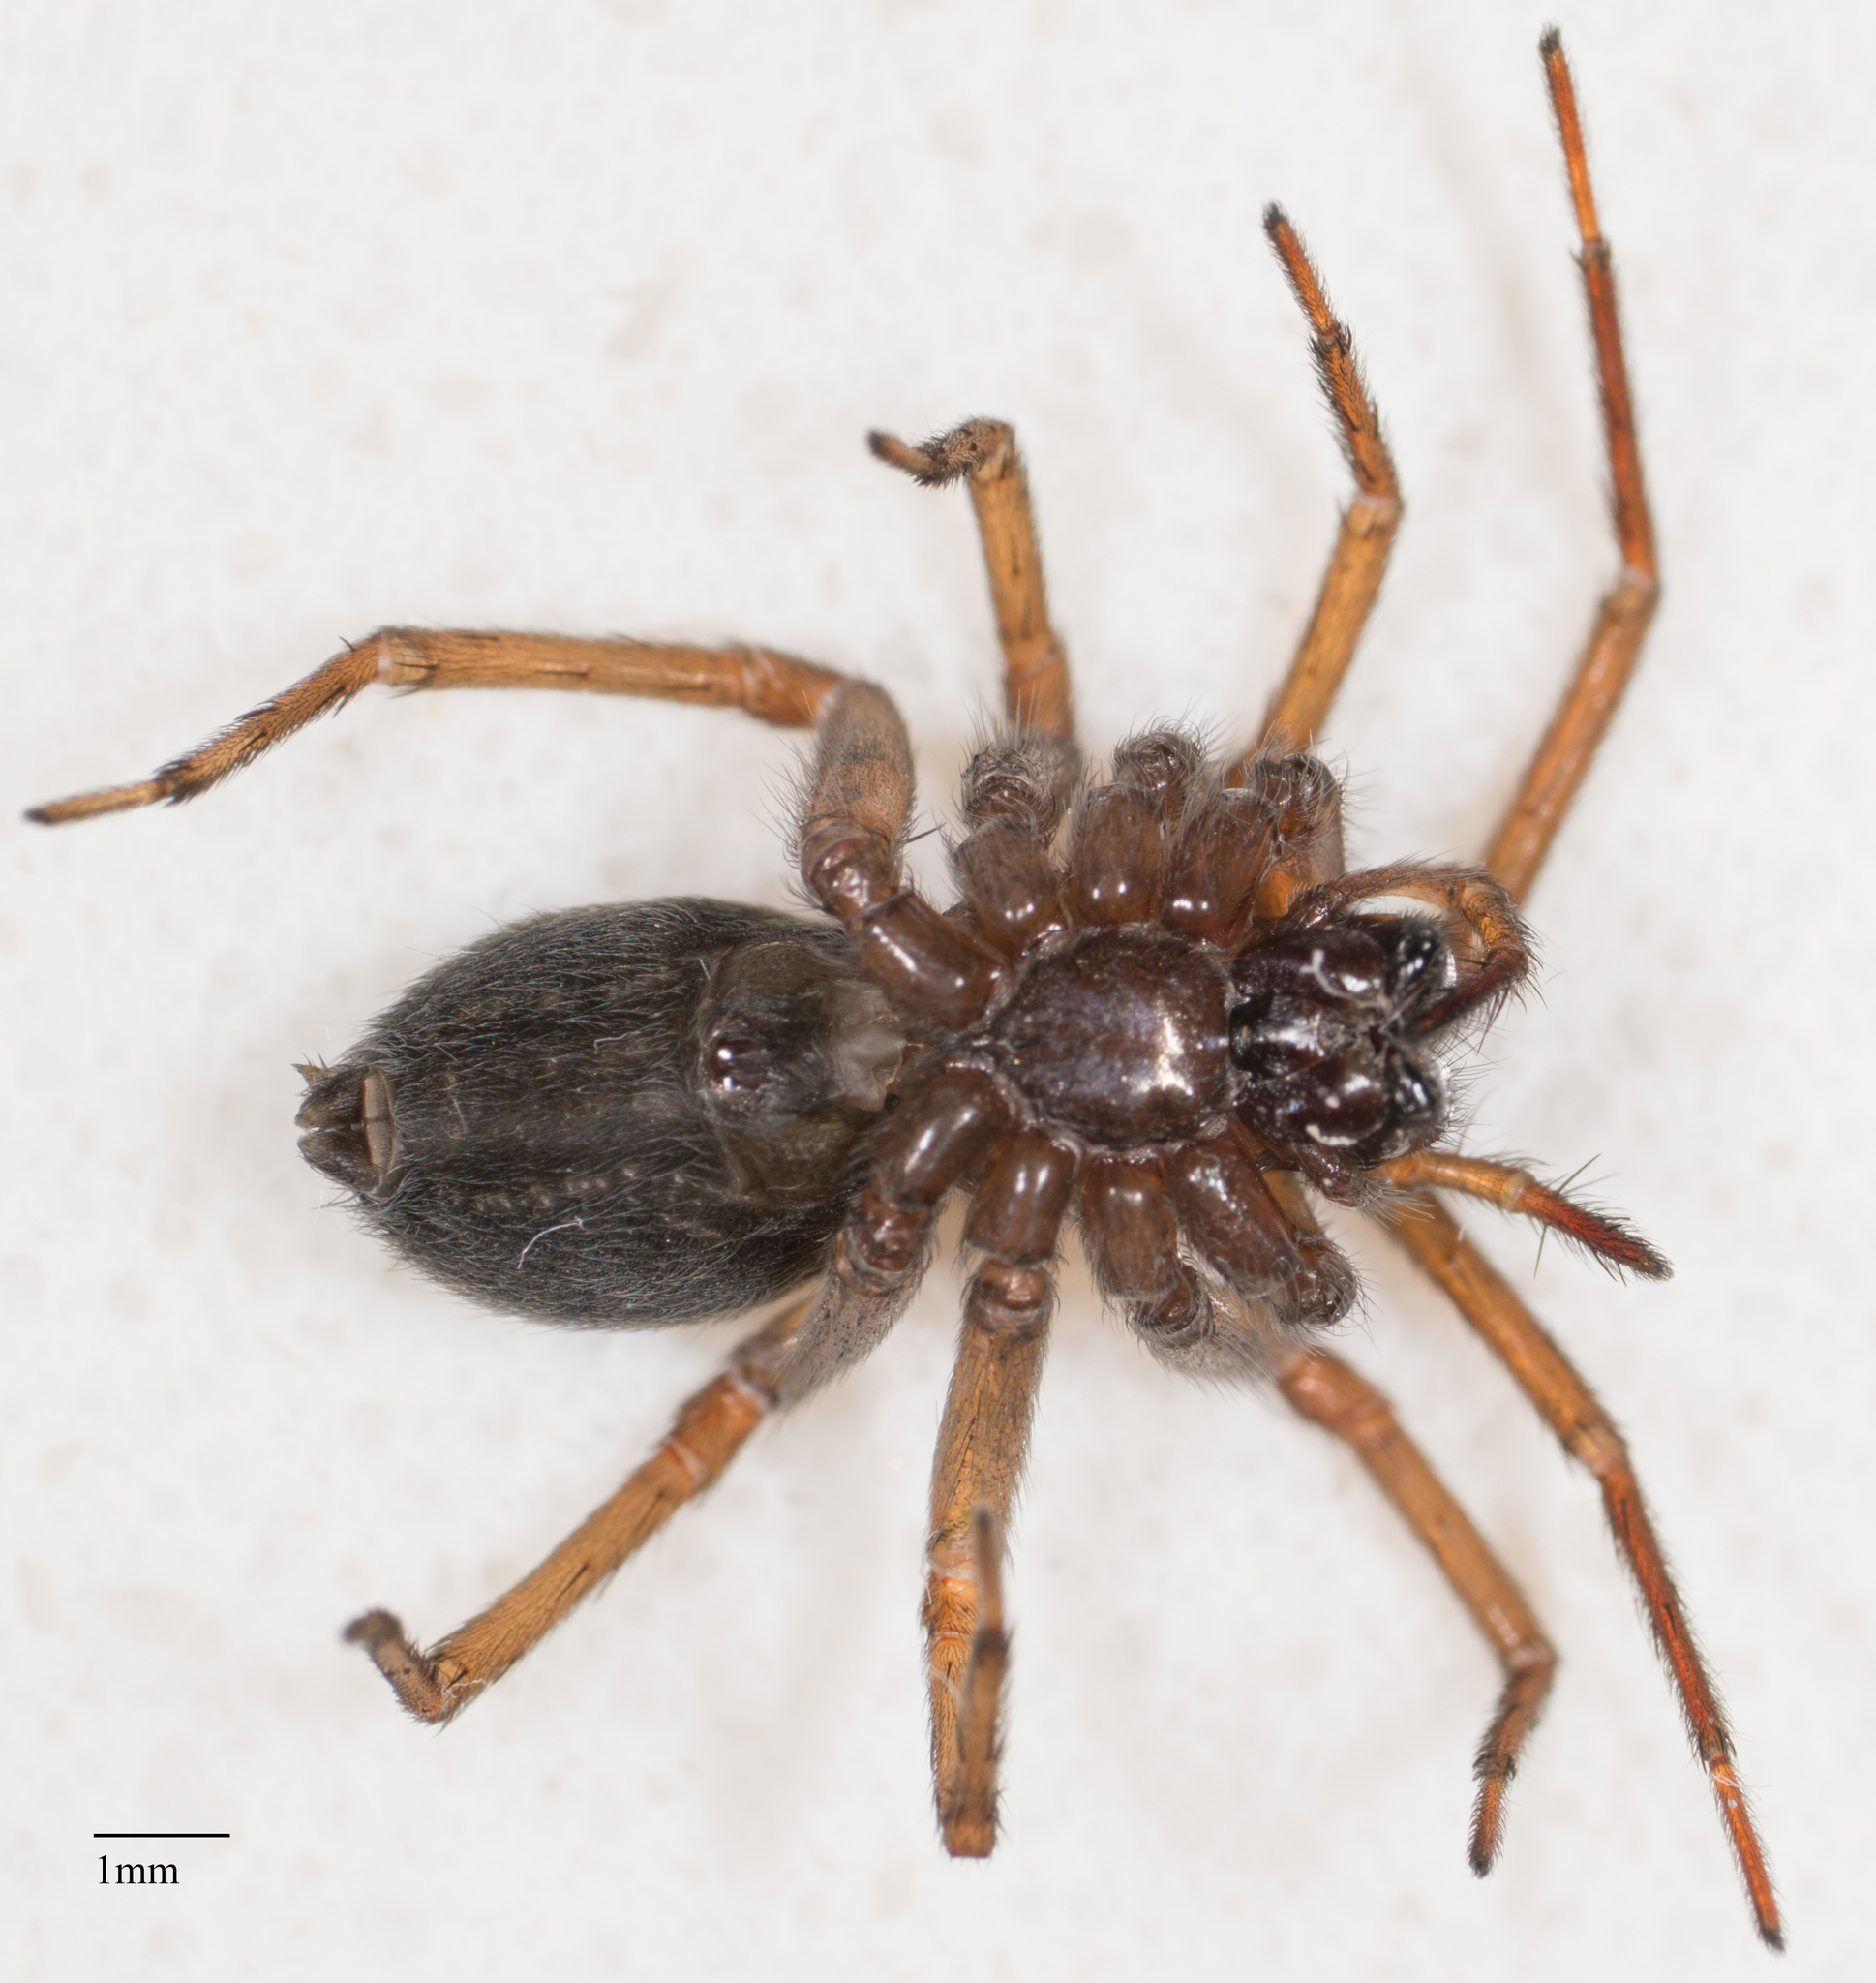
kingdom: Animalia
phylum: Arthropoda
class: Arachnida
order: Araneae
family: Desidae
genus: Metaltella
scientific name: Metaltella simoni
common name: Cribellate spider
